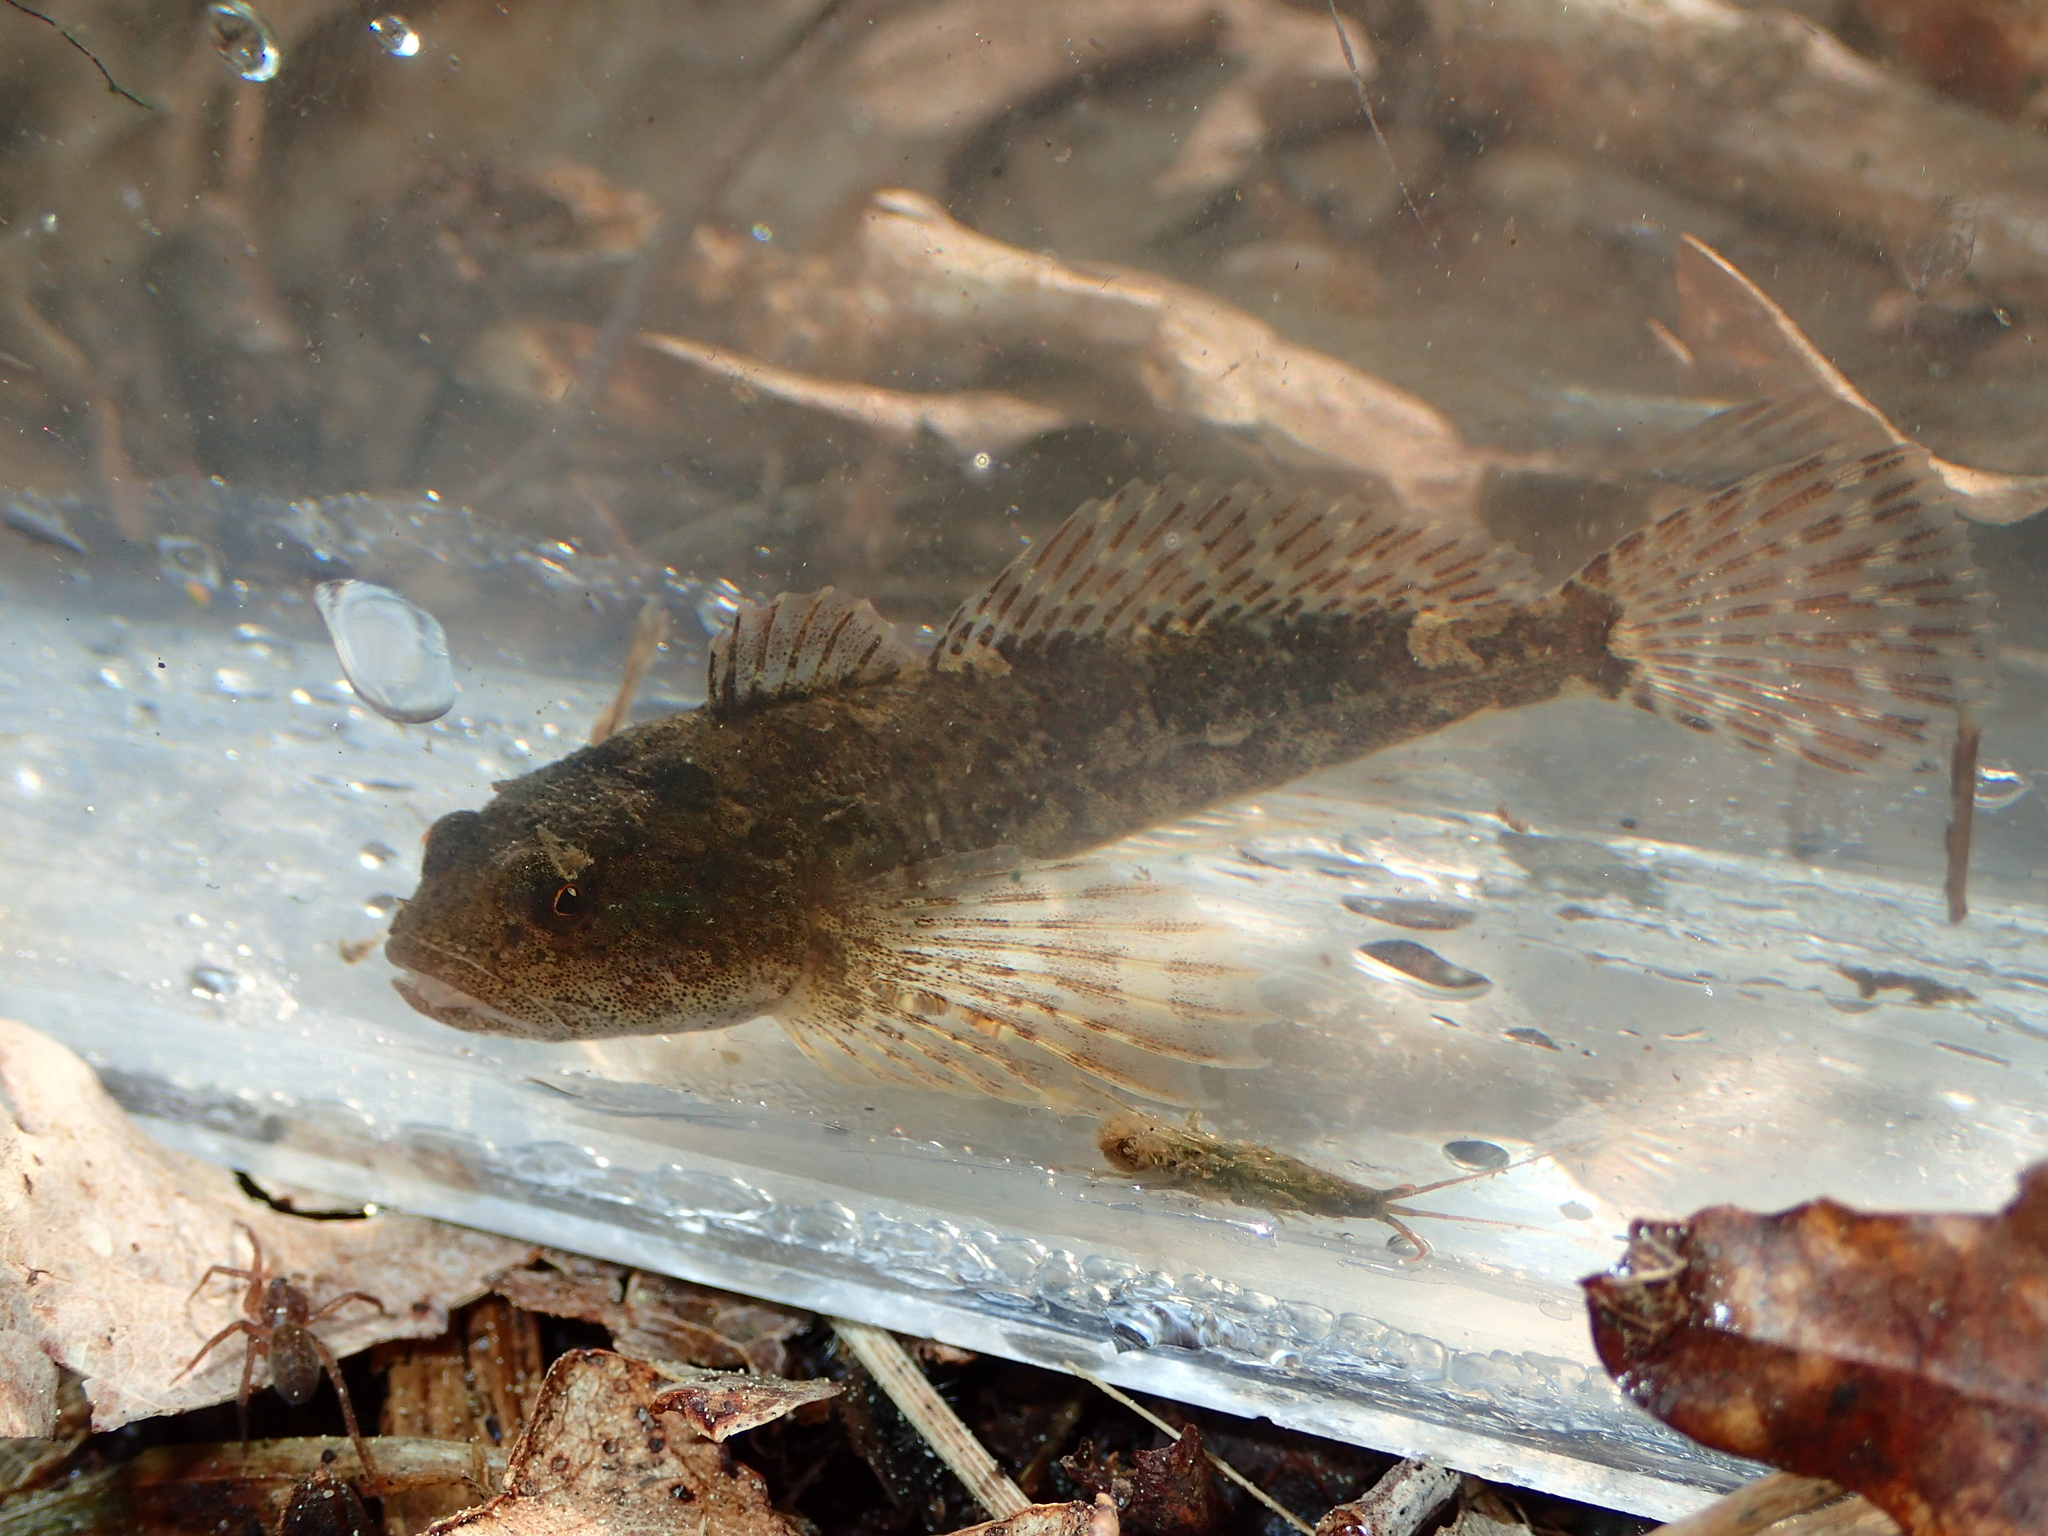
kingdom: Animalia
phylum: Chordata
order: Scorpaeniformes
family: Cottidae
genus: Cottus
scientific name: Cottus perifretum
